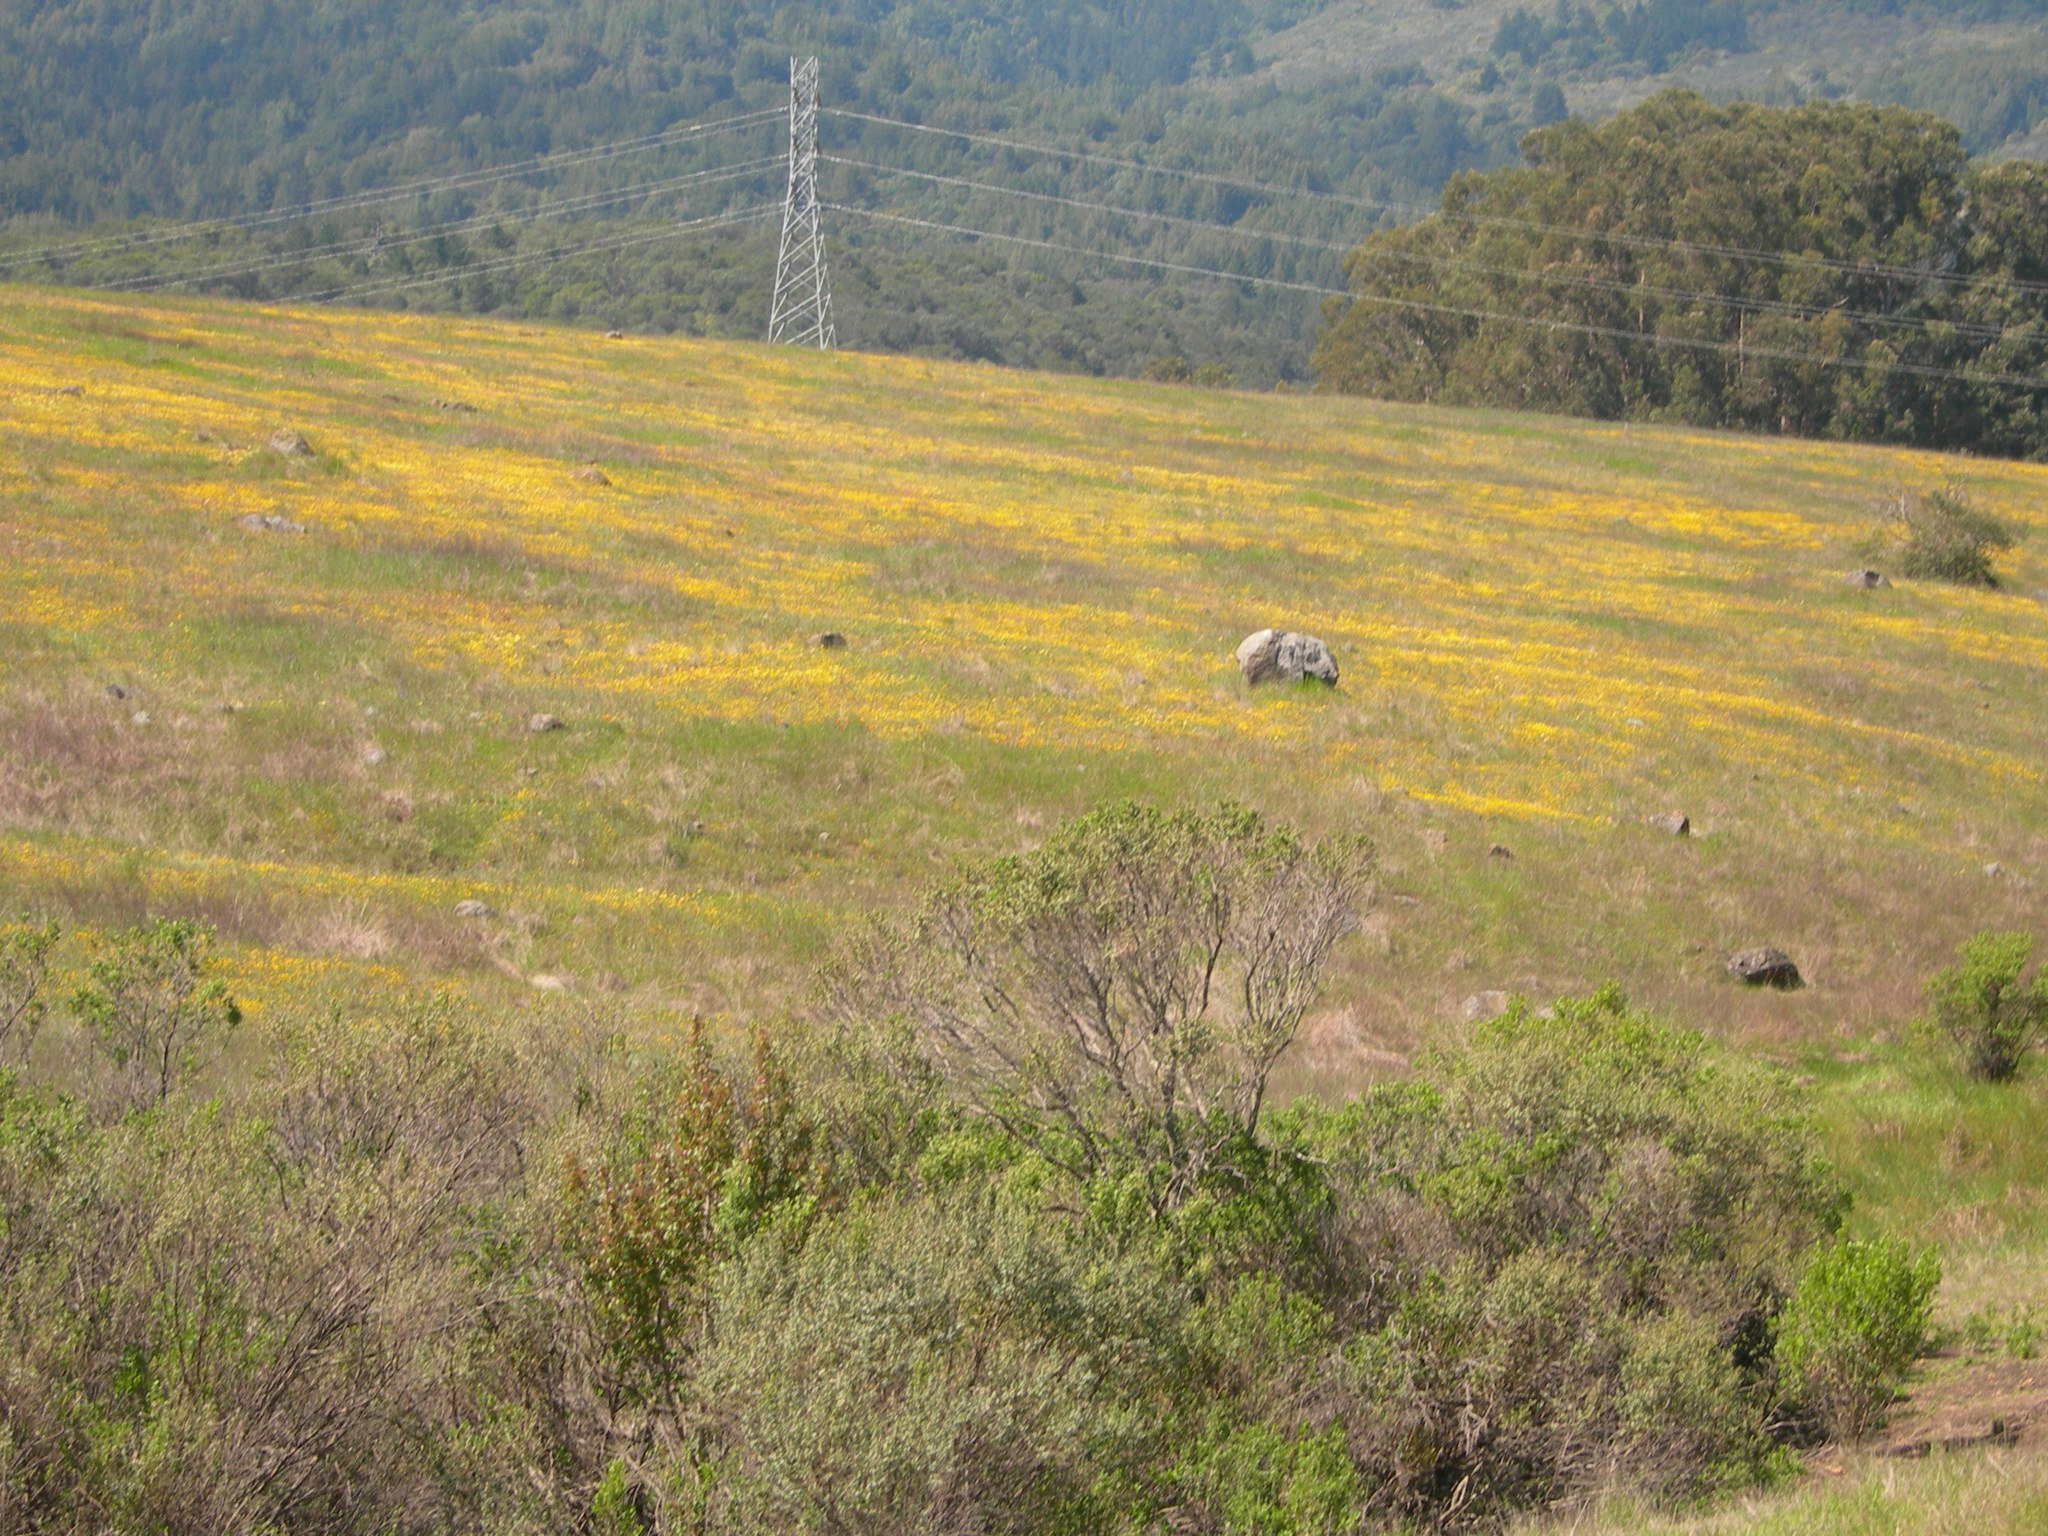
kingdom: Plantae
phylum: Tracheophyta
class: Magnoliopsida
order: Asterales
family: Asteraceae
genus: Lasthenia
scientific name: Lasthenia californica
